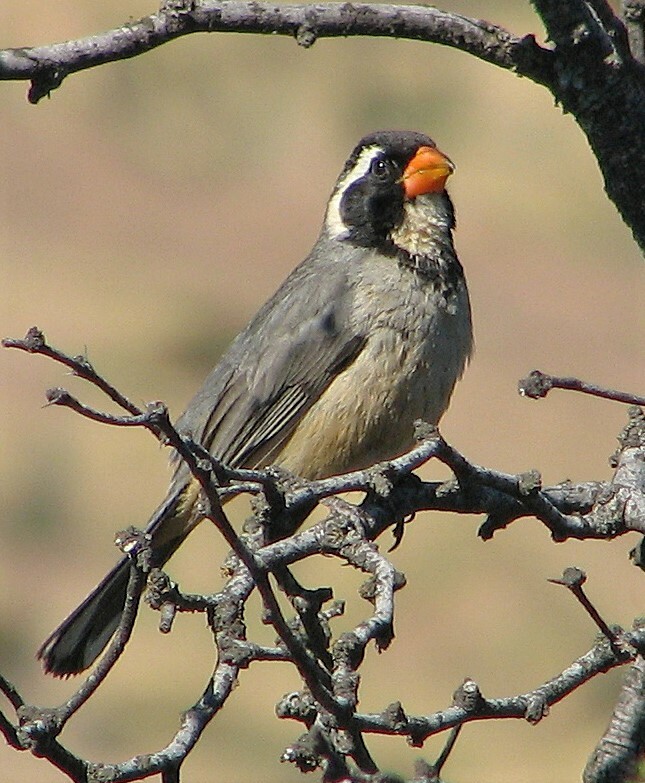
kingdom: Animalia
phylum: Chordata
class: Aves
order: Passeriformes
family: Thraupidae
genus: Saltator
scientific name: Saltator aurantiirostris
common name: Golden-billed saltator
